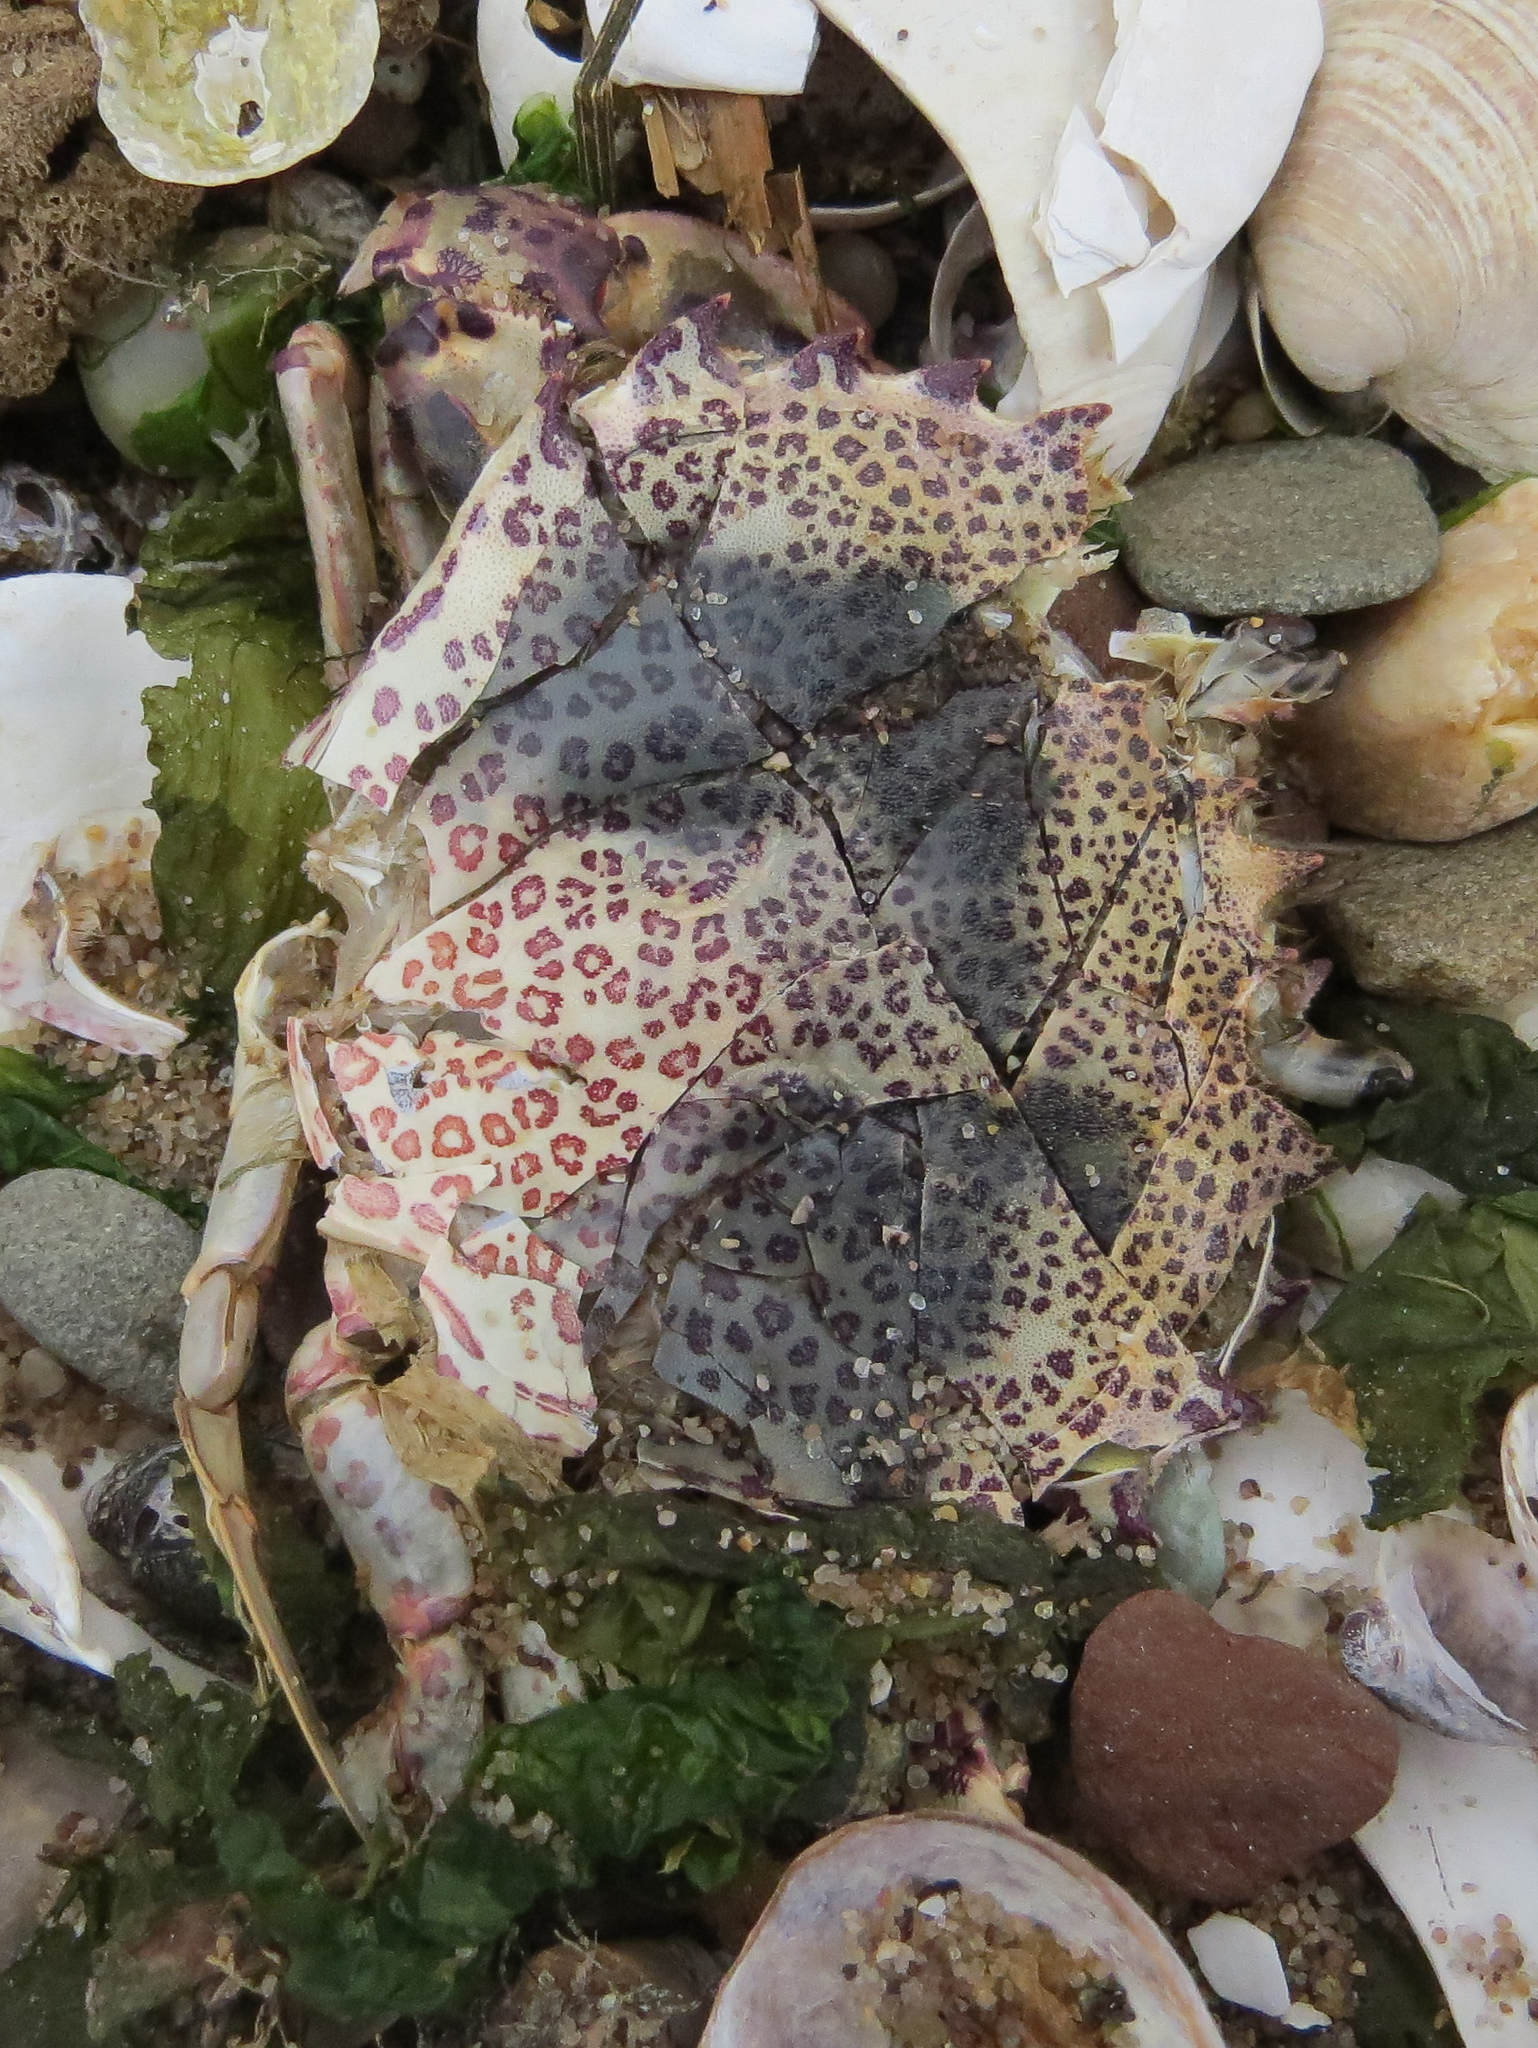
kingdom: Animalia
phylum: Arthropoda
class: Malacostraca
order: Decapoda
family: Ovalipidae
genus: Ovalipes
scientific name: Ovalipes ocellatus
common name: Lady crab
